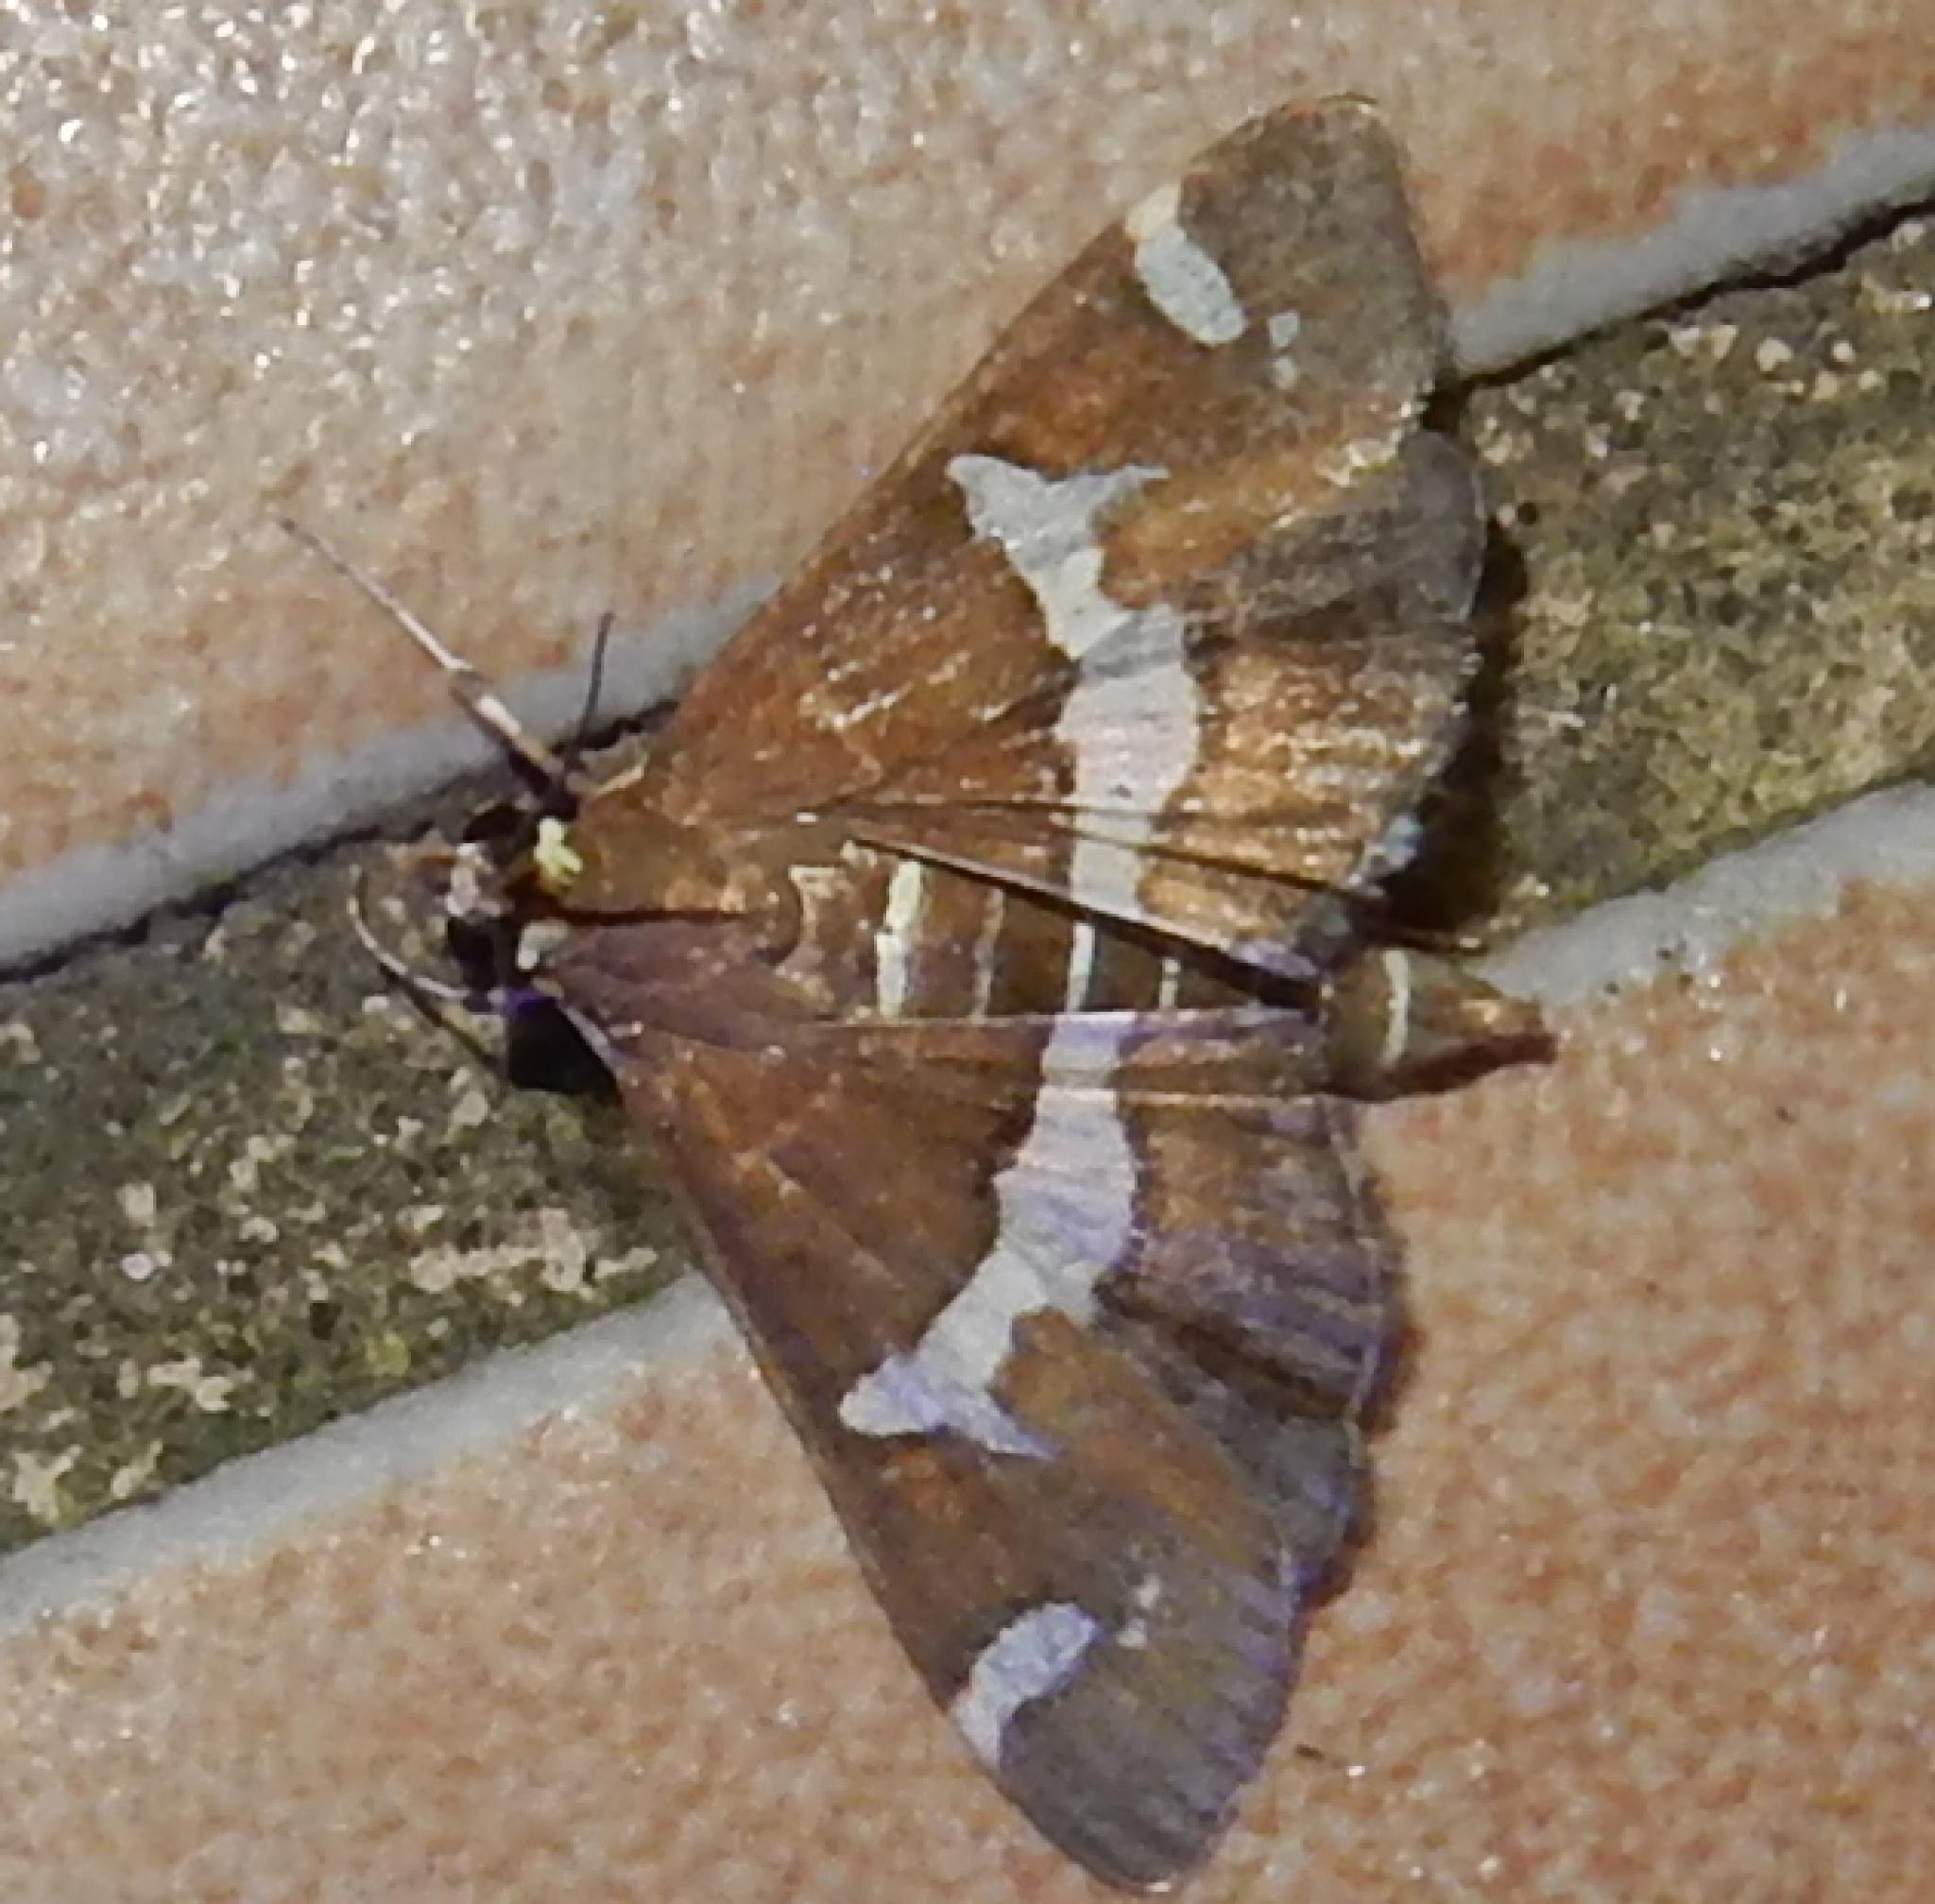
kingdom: Animalia
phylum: Arthropoda
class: Insecta
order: Lepidoptera
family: Crambidae
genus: Spoladea
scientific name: Spoladea recurvalis
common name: Beet webworm moth
